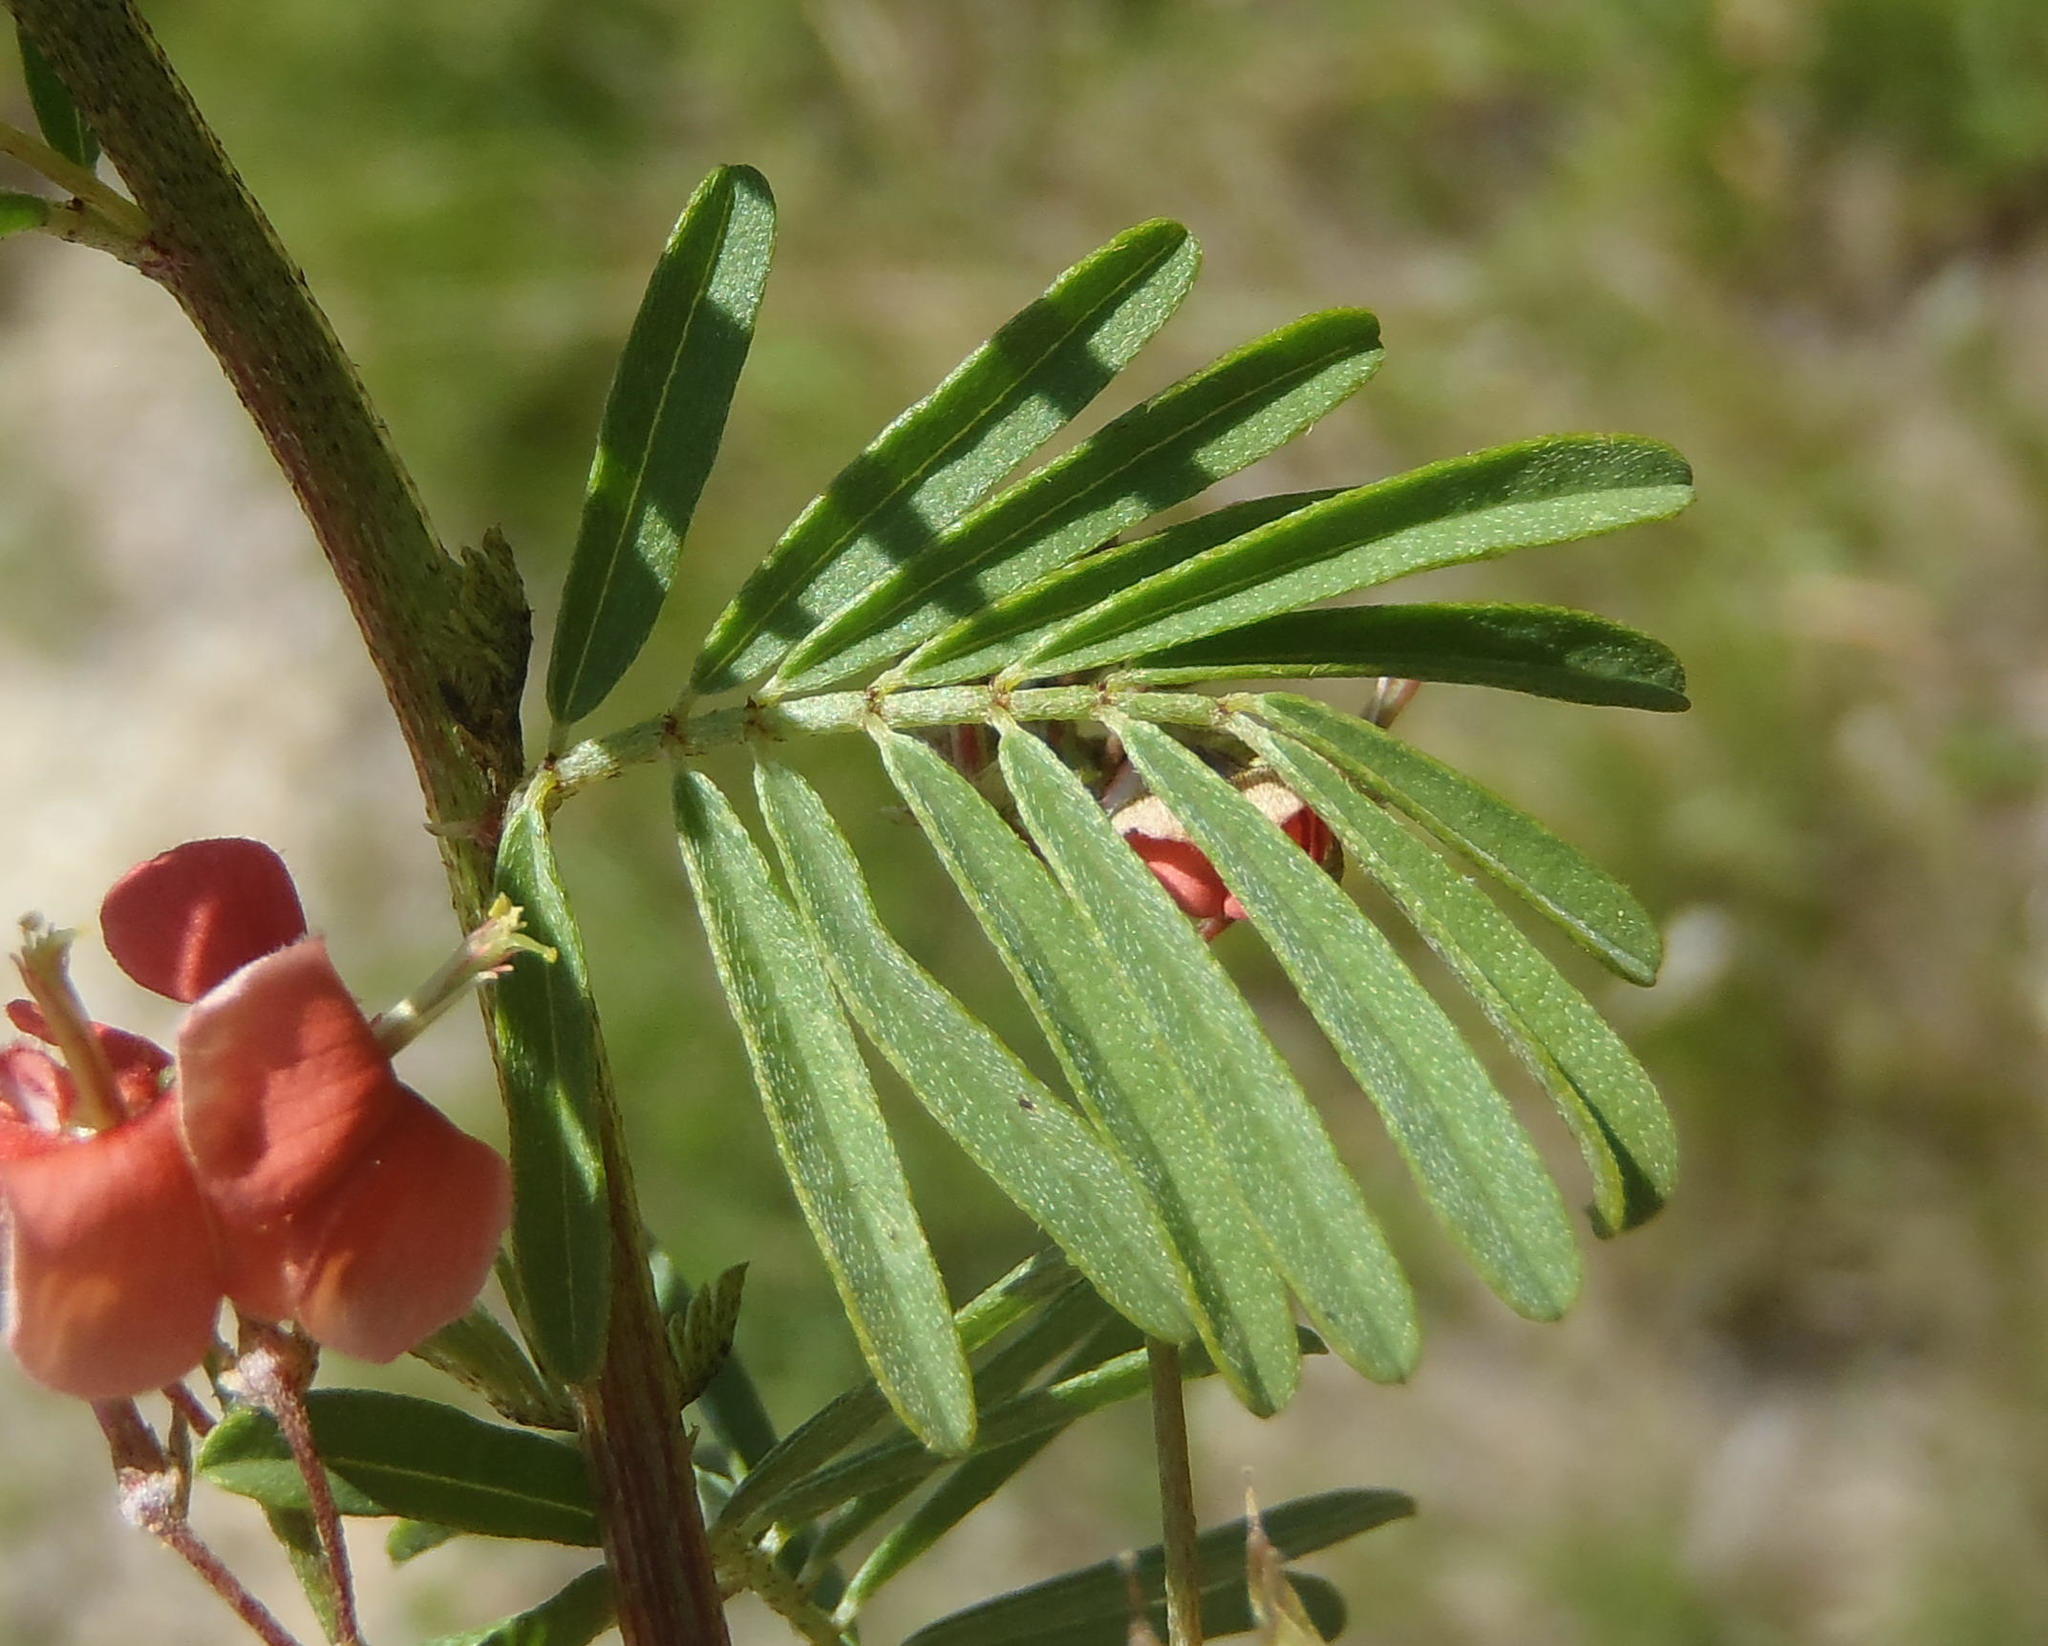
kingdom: Plantae
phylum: Tracheophyta
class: Magnoliopsida
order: Fabales
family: Fabaceae
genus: Indigofera
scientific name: Indigofera verrucosa
